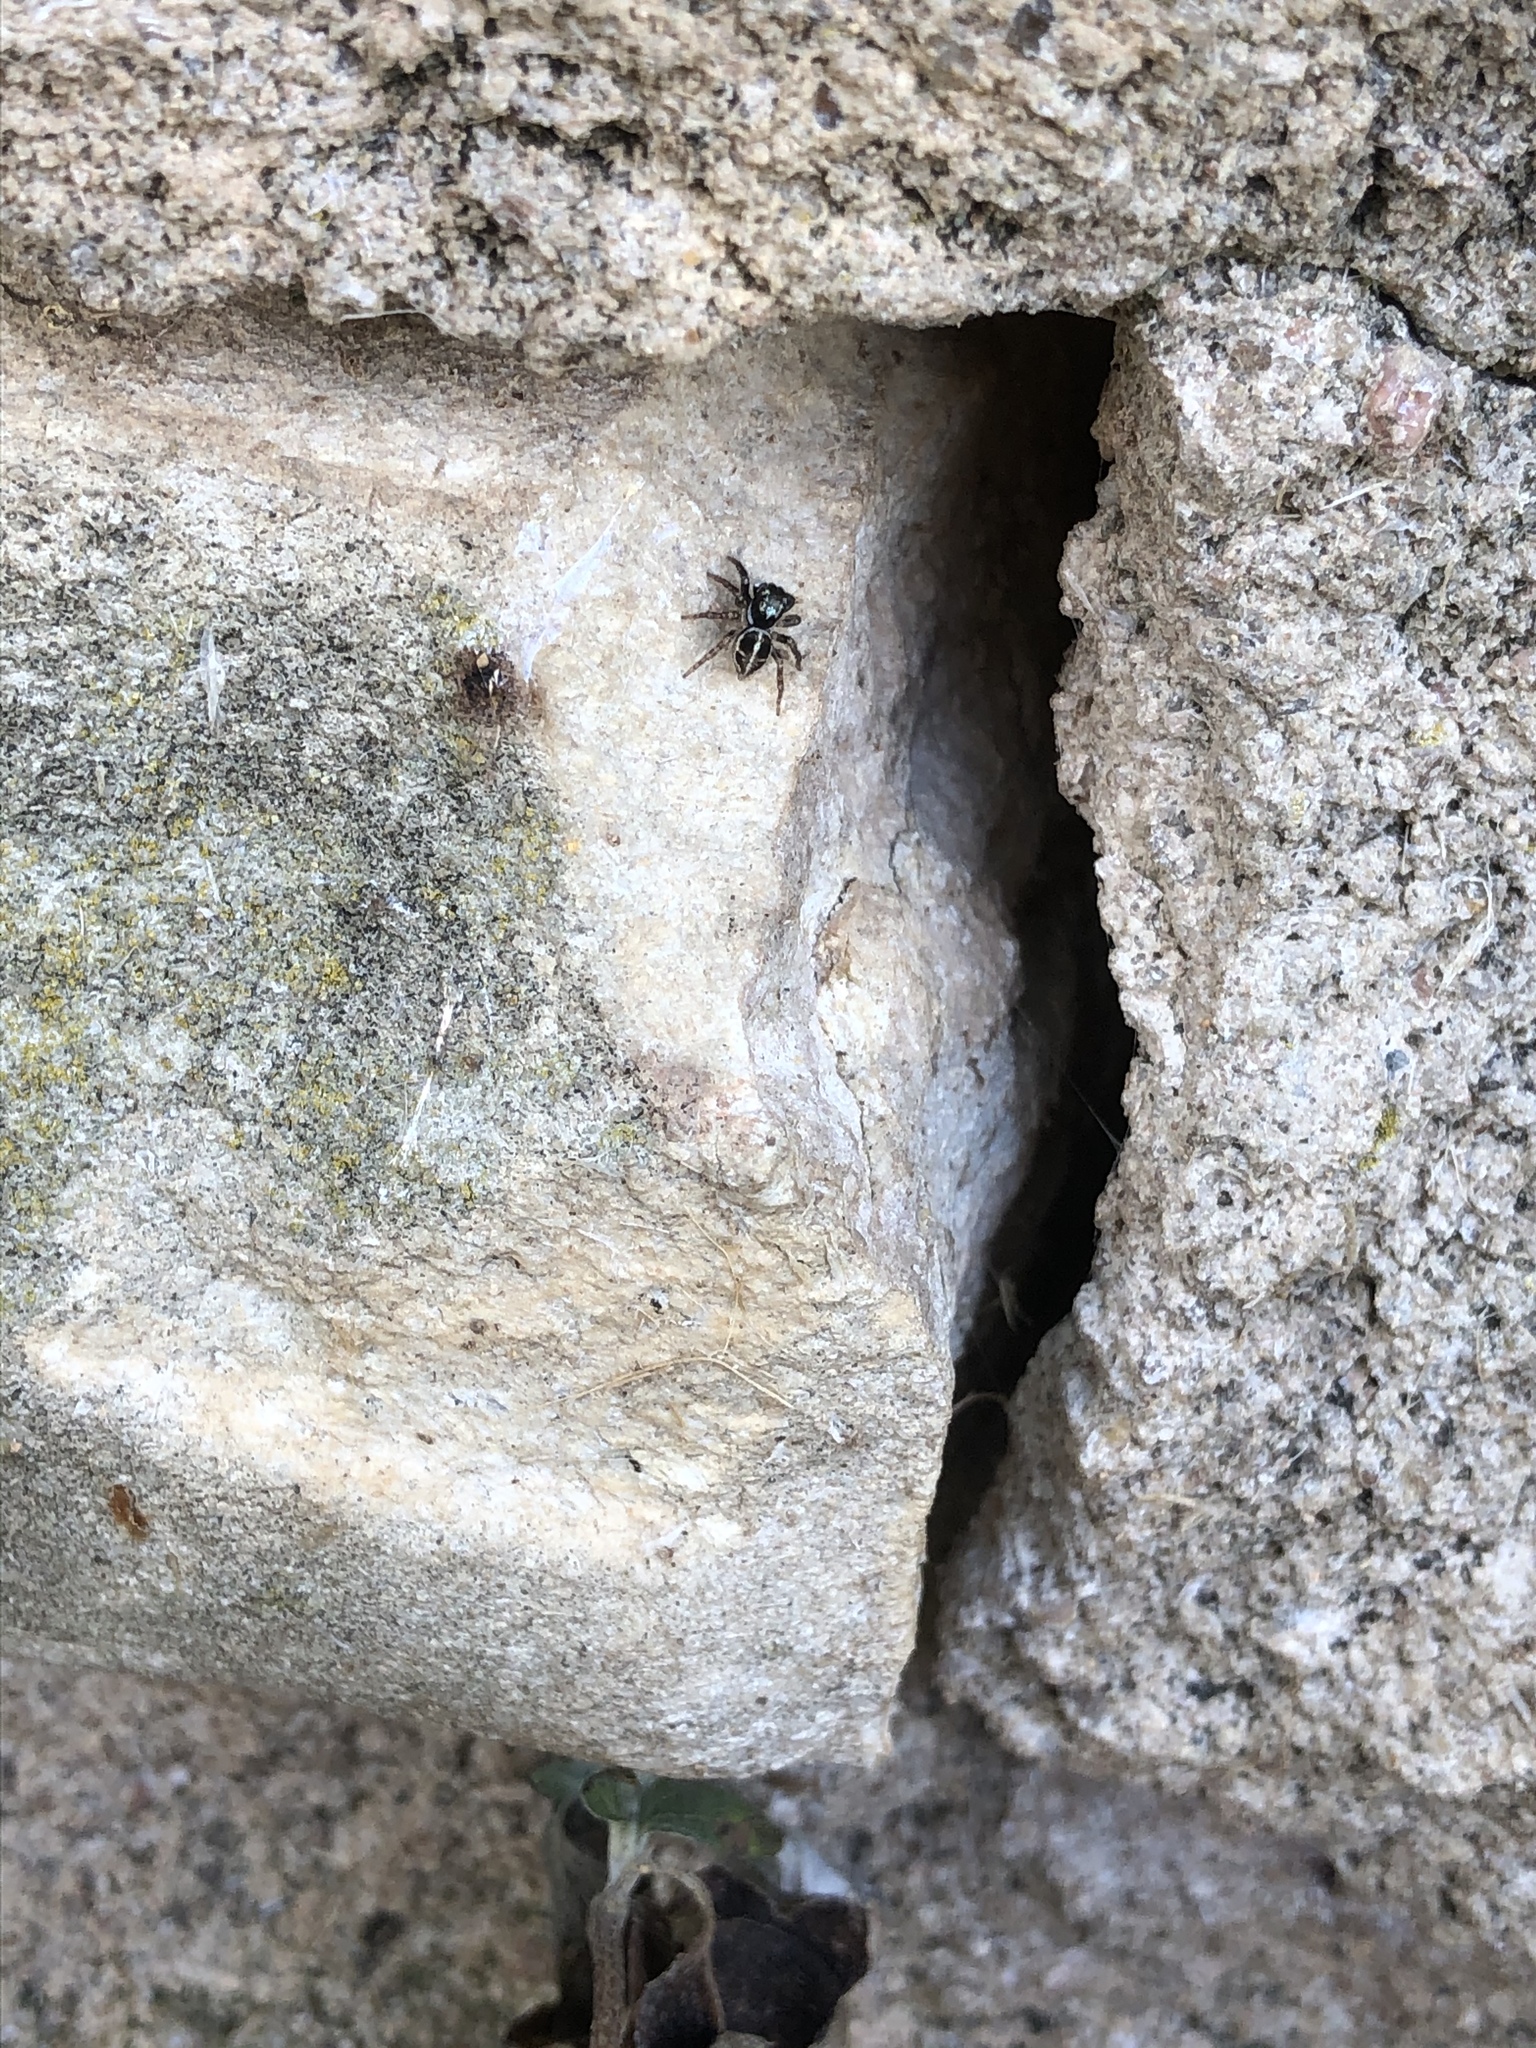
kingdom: Animalia
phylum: Arthropoda
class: Arachnida
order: Araneae
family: Salticidae
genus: Anasaitis
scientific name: Anasaitis canosa
